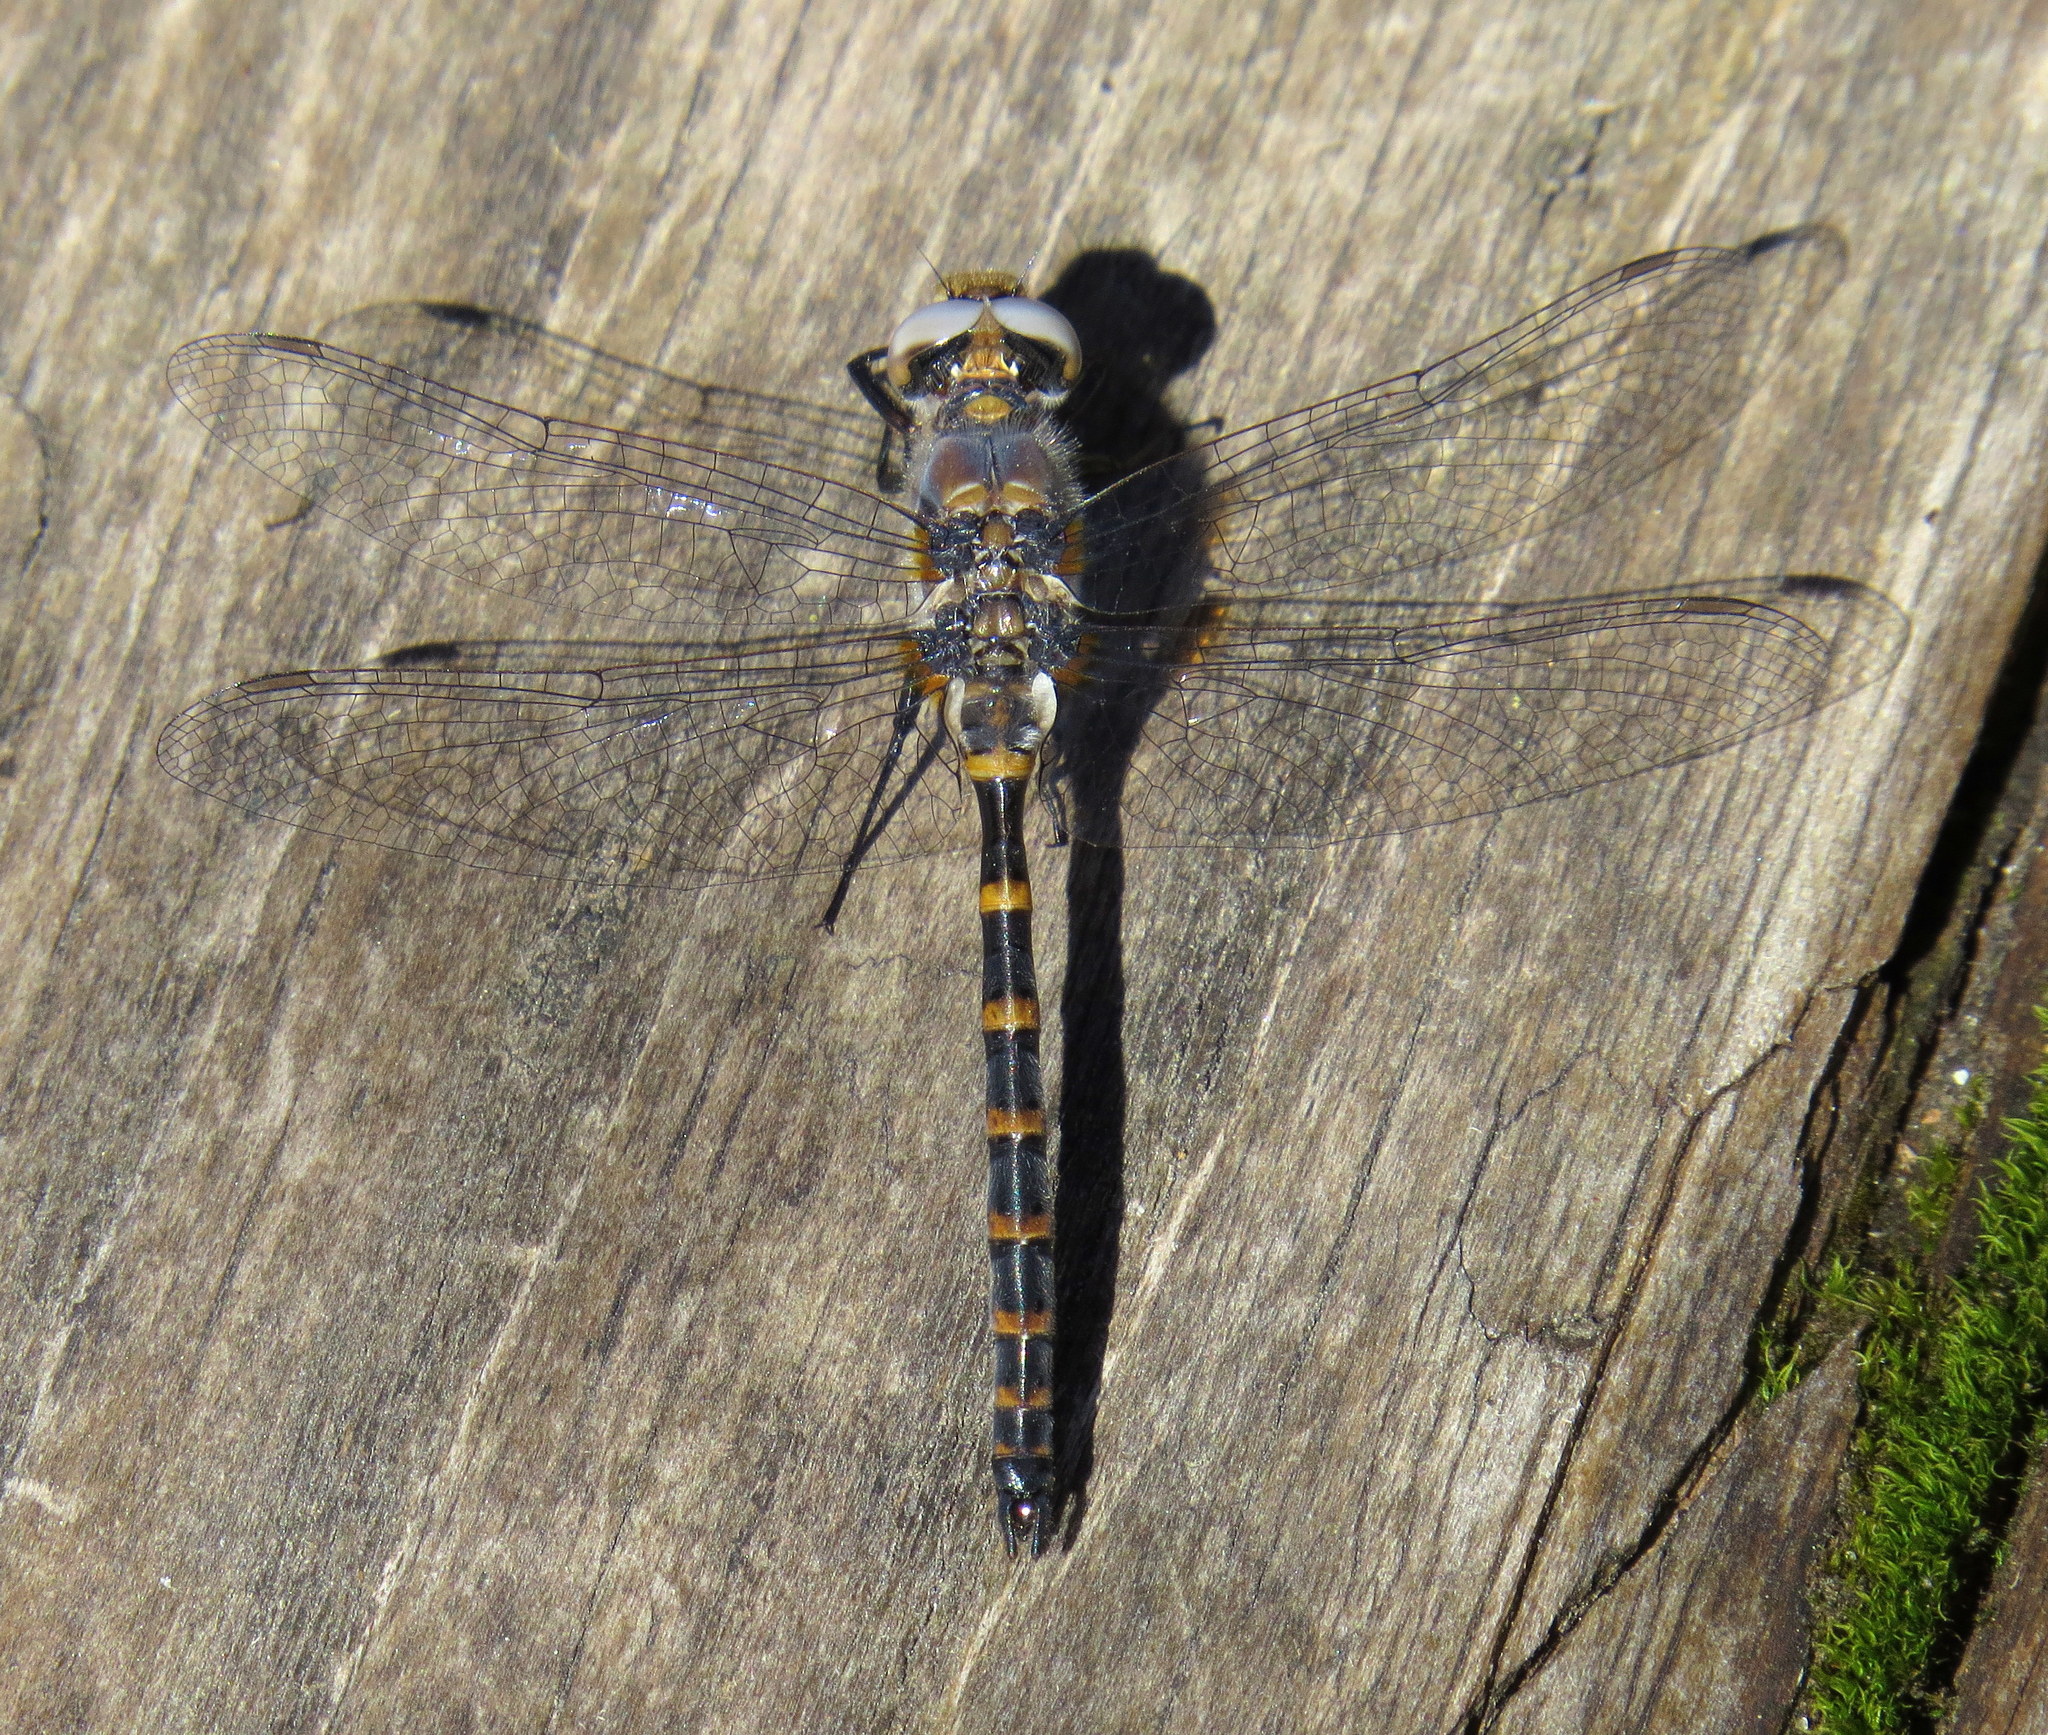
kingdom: Animalia
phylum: Arthropoda
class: Insecta
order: Odonata
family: Corduliidae
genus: Williamsonia
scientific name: Williamsonia lintneri
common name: Ringed boghaunter
